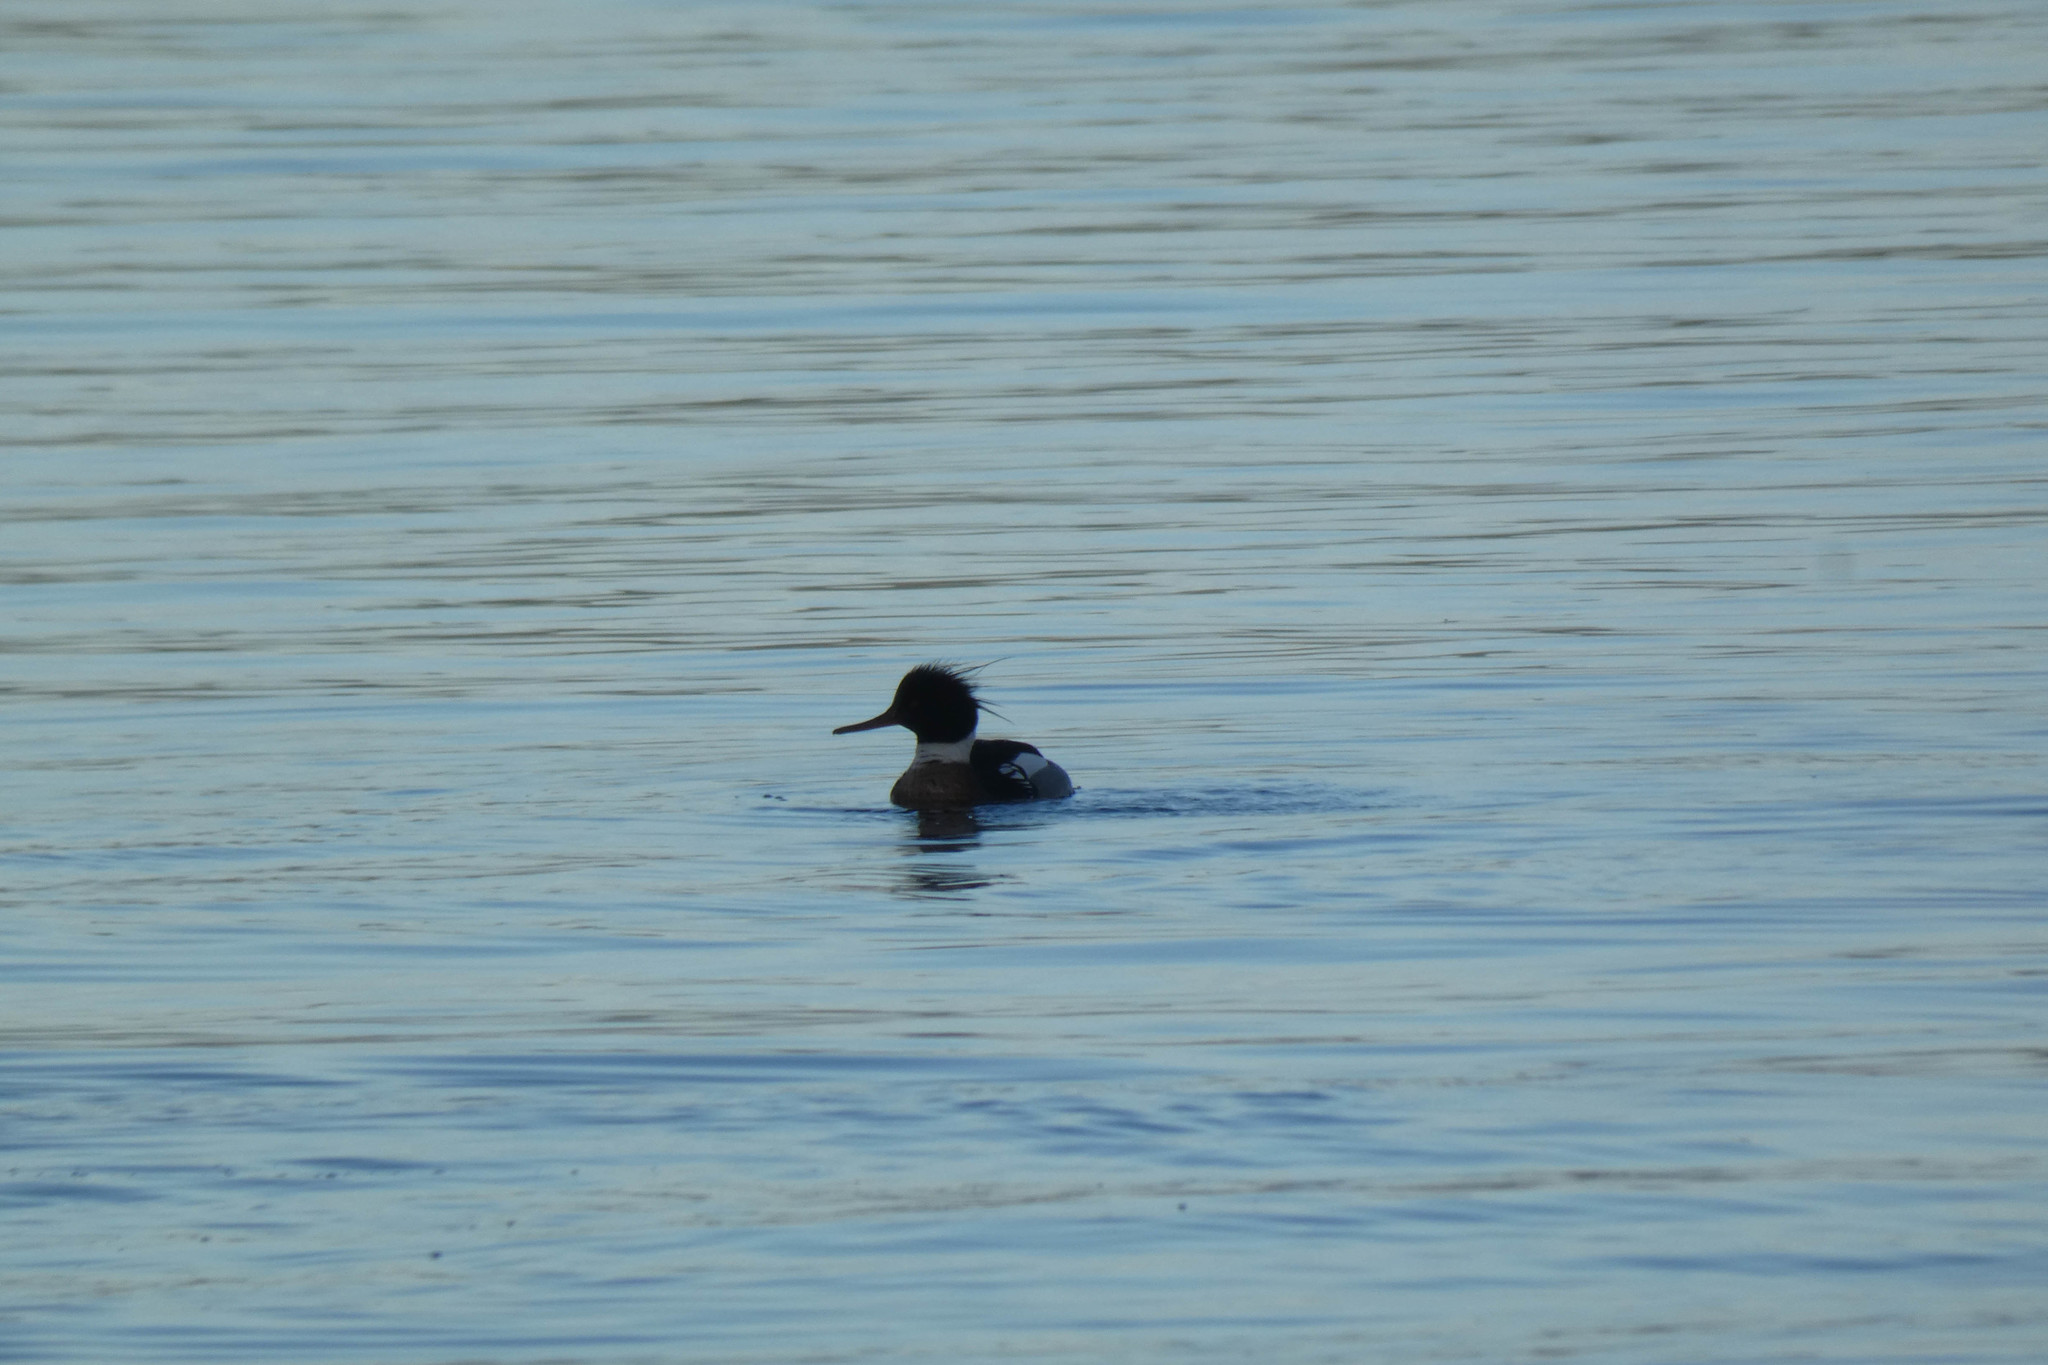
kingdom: Animalia
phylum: Chordata
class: Aves
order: Anseriformes
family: Anatidae
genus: Mergus
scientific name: Mergus serrator
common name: Red-breasted merganser
